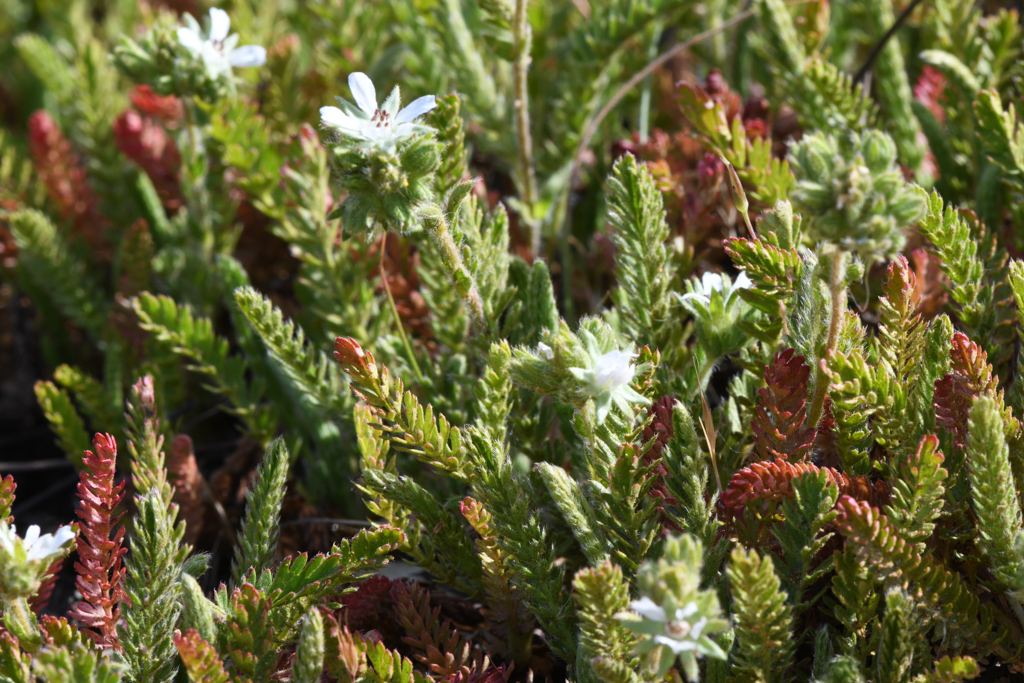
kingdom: Plantae
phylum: Tracheophyta
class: Magnoliopsida
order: Rosales
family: Rosaceae
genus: Potentilla
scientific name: Potentilla micheneri
